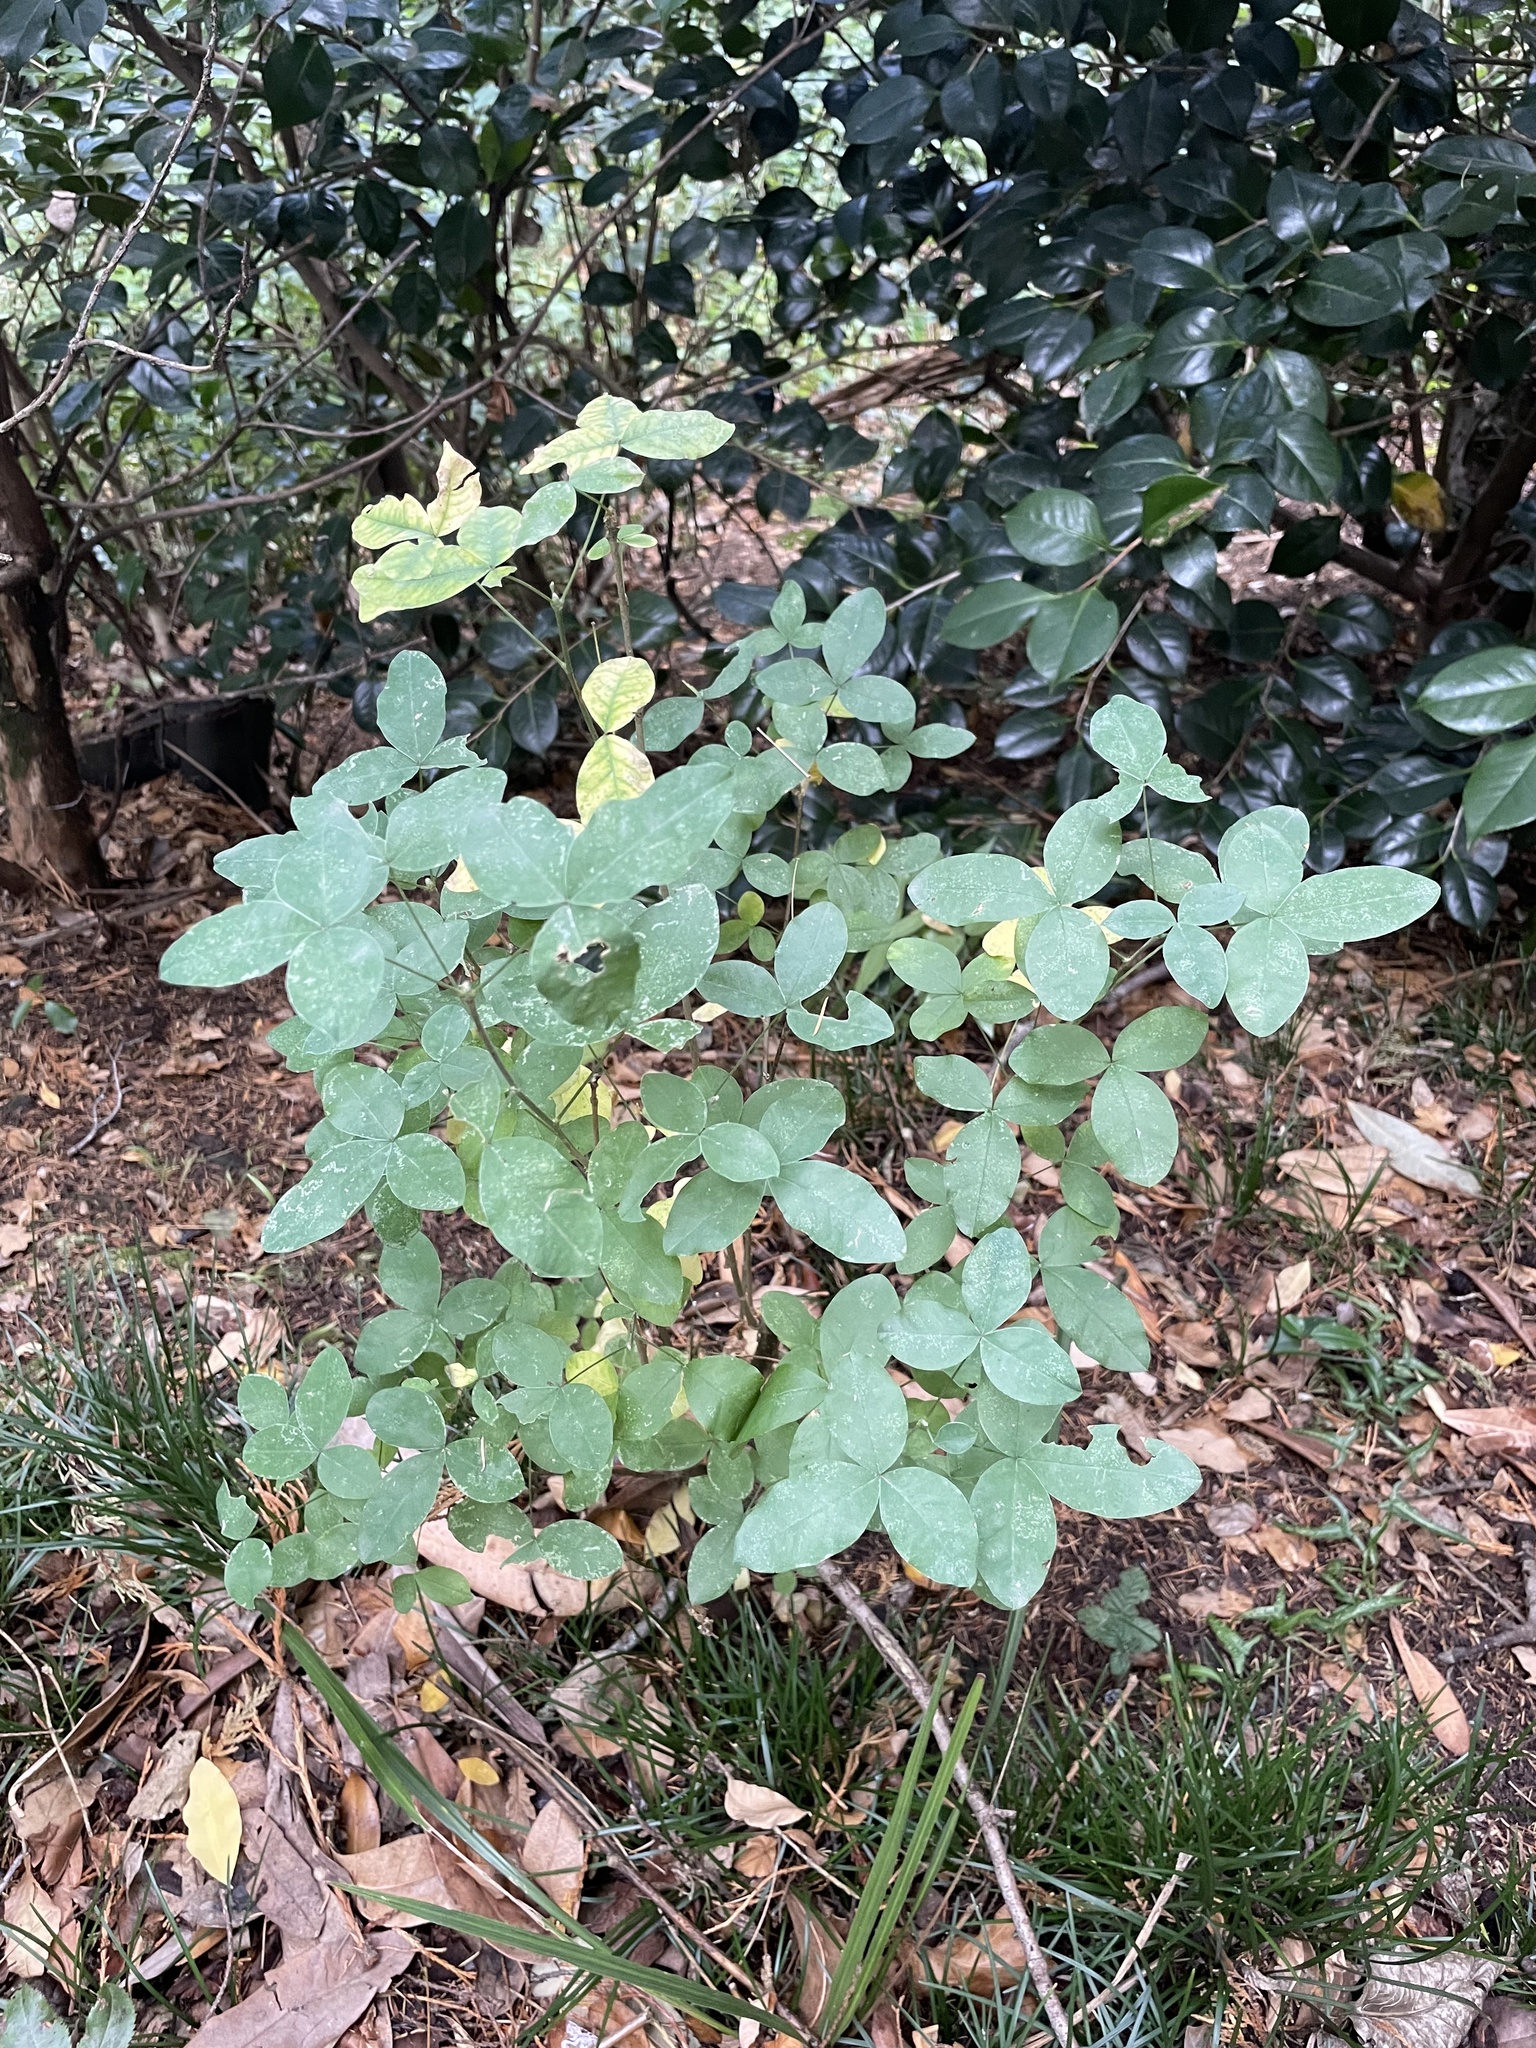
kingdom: Plantae
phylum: Tracheophyta
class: Magnoliopsida
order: Fabales
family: Fabaceae
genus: Laburnum
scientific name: Laburnum anagyroides
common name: Laburnum
